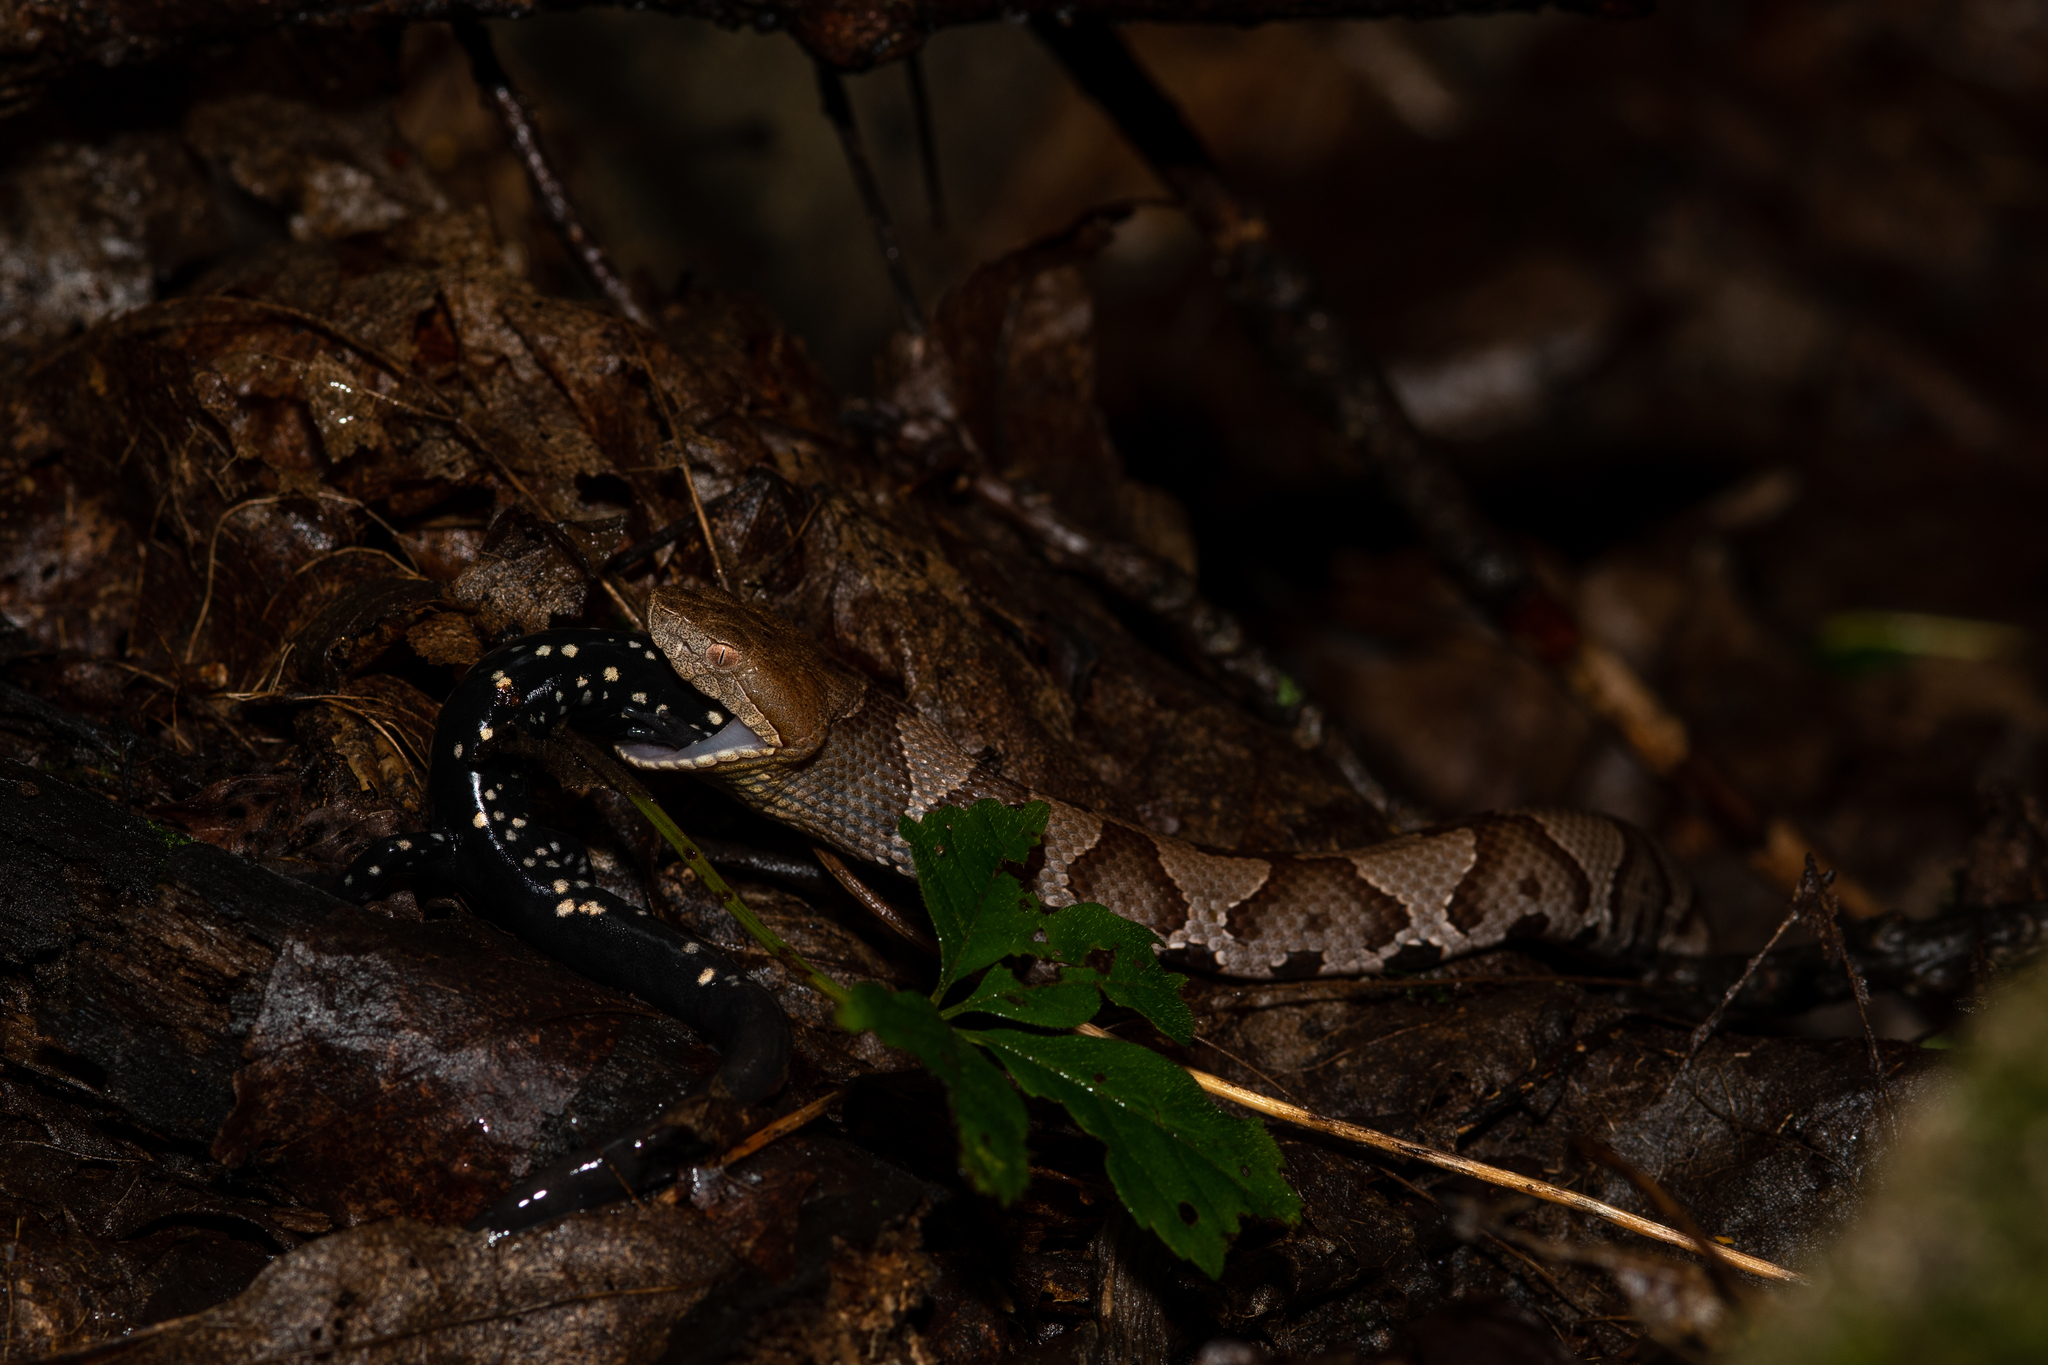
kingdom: Animalia
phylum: Chordata
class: Amphibia
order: Caudata
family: Plethodontidae
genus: Plethodon
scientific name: Plethodon glutinosus
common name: Northern slimy salamander
